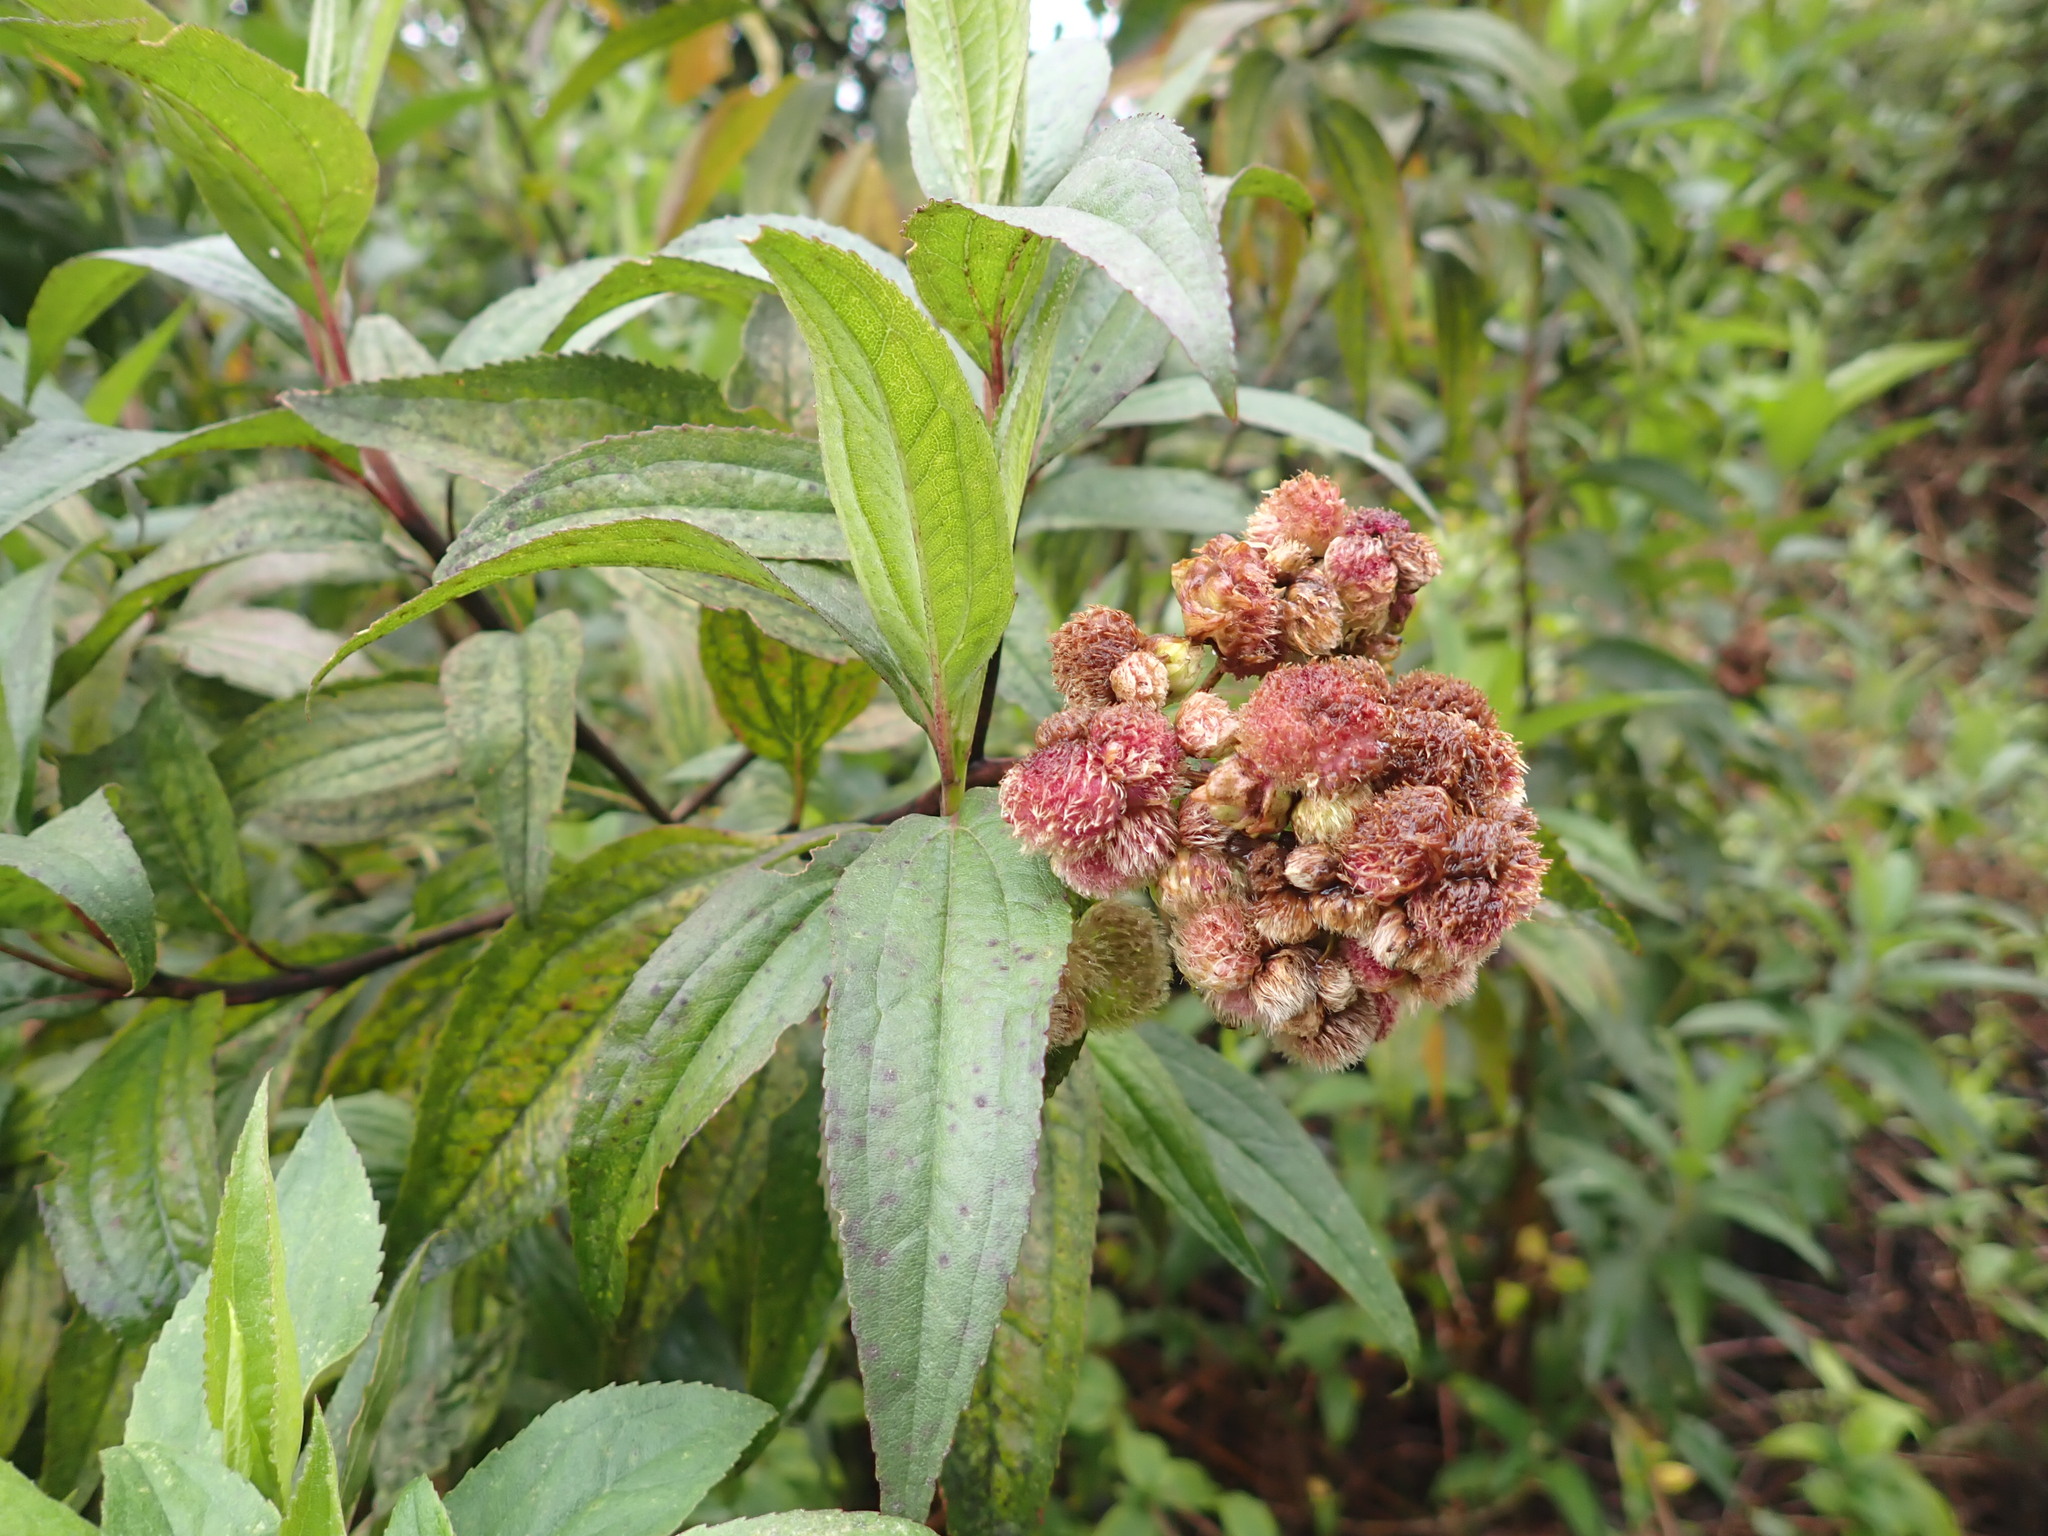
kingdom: Plantae
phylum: Tracheophyta
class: Magnoliopsida
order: Asterales
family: Asteraceae
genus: Baccharis
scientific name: Baccharis latifolia
